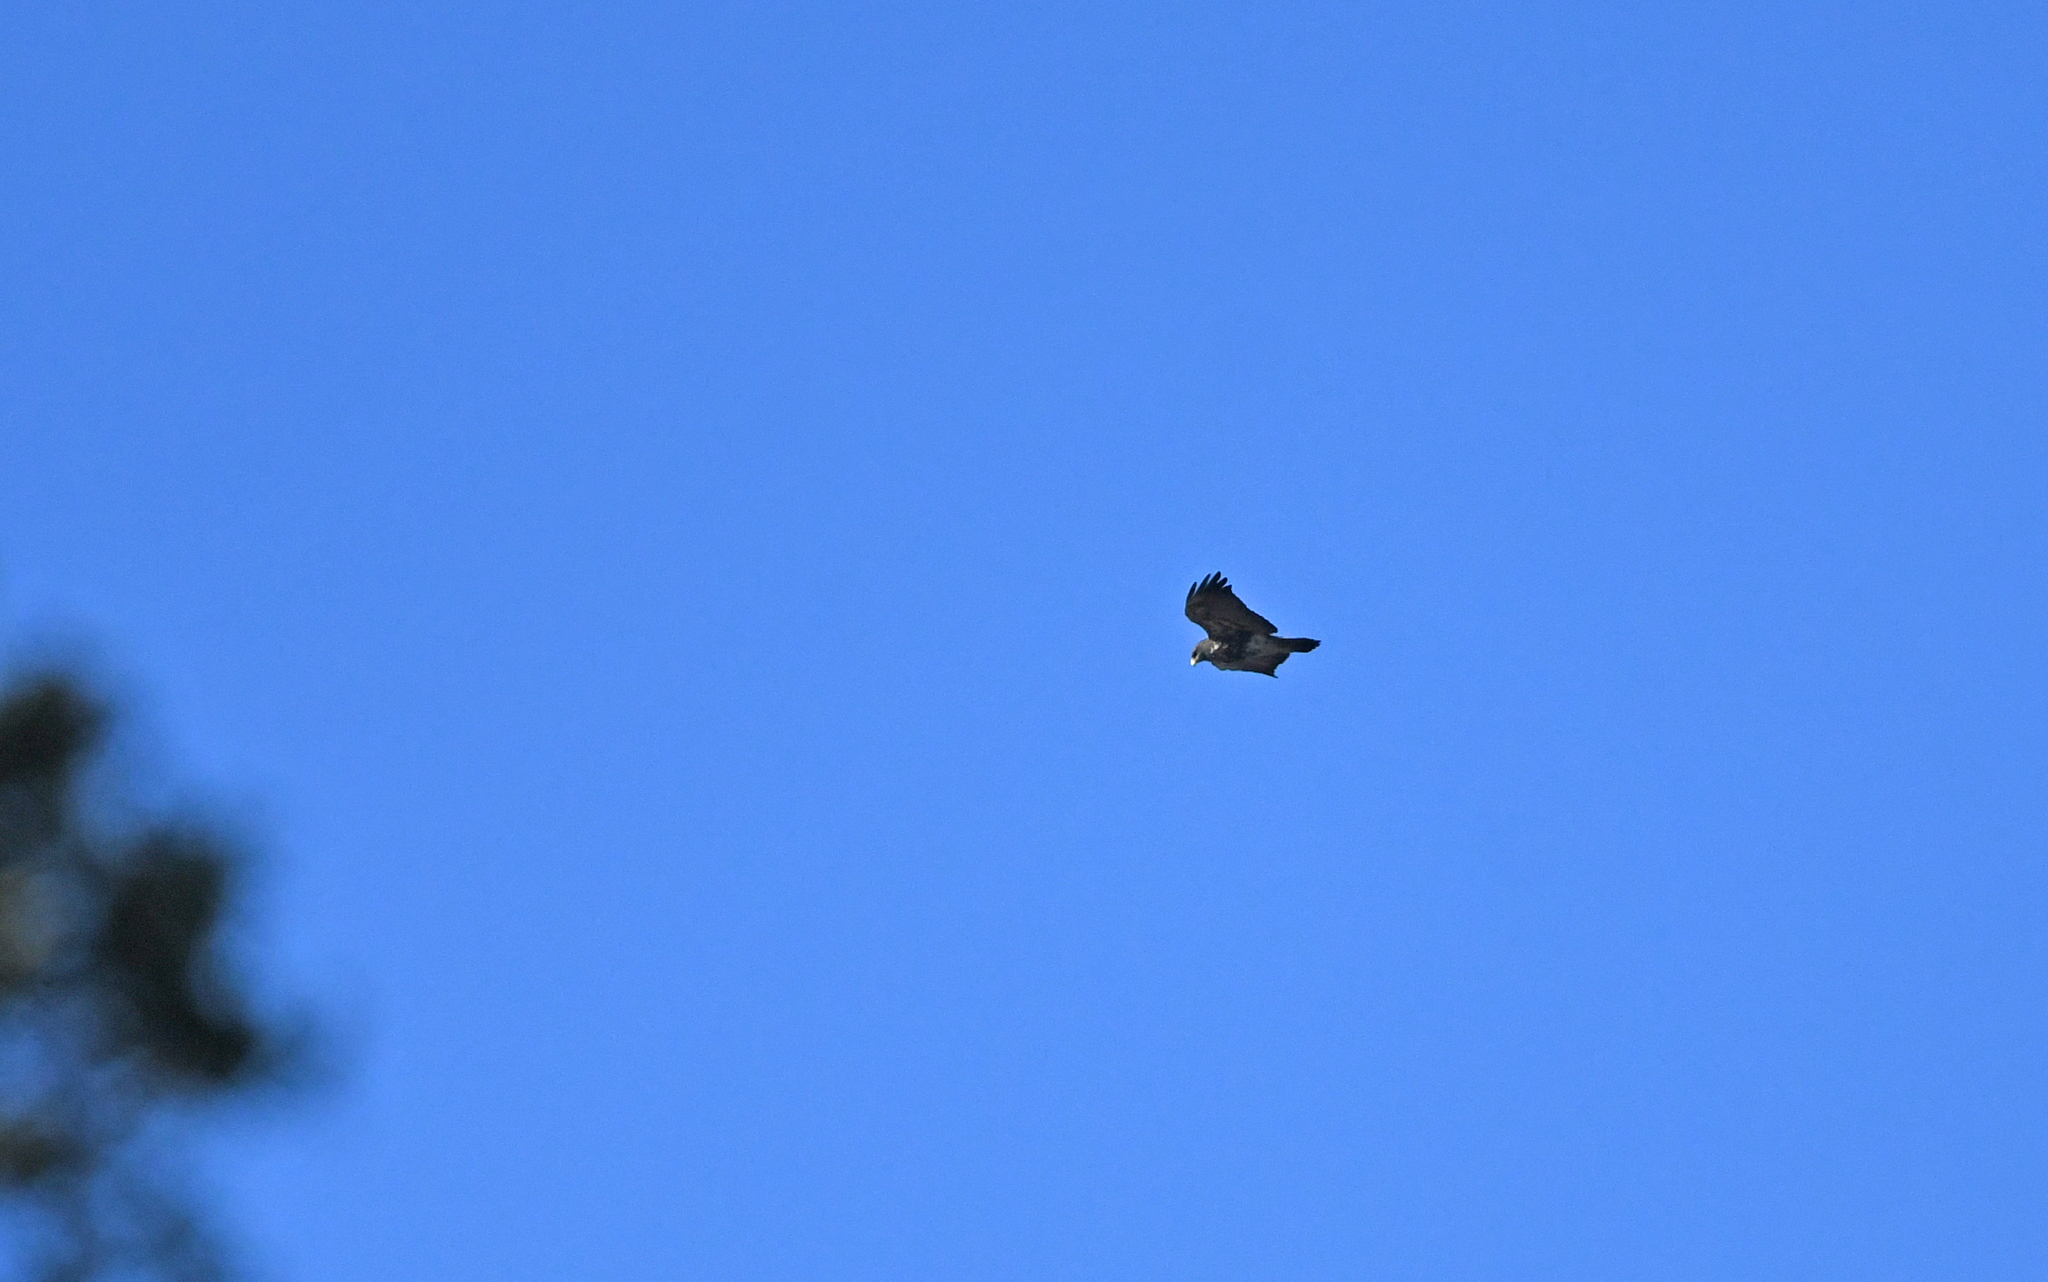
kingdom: Animalia
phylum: Chordata
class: Aves
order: Accipitriformes
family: Accipitridae
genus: Geranoaetus
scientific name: Geranoaetus melanoleucus
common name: Black-chested buzzard-eagle
